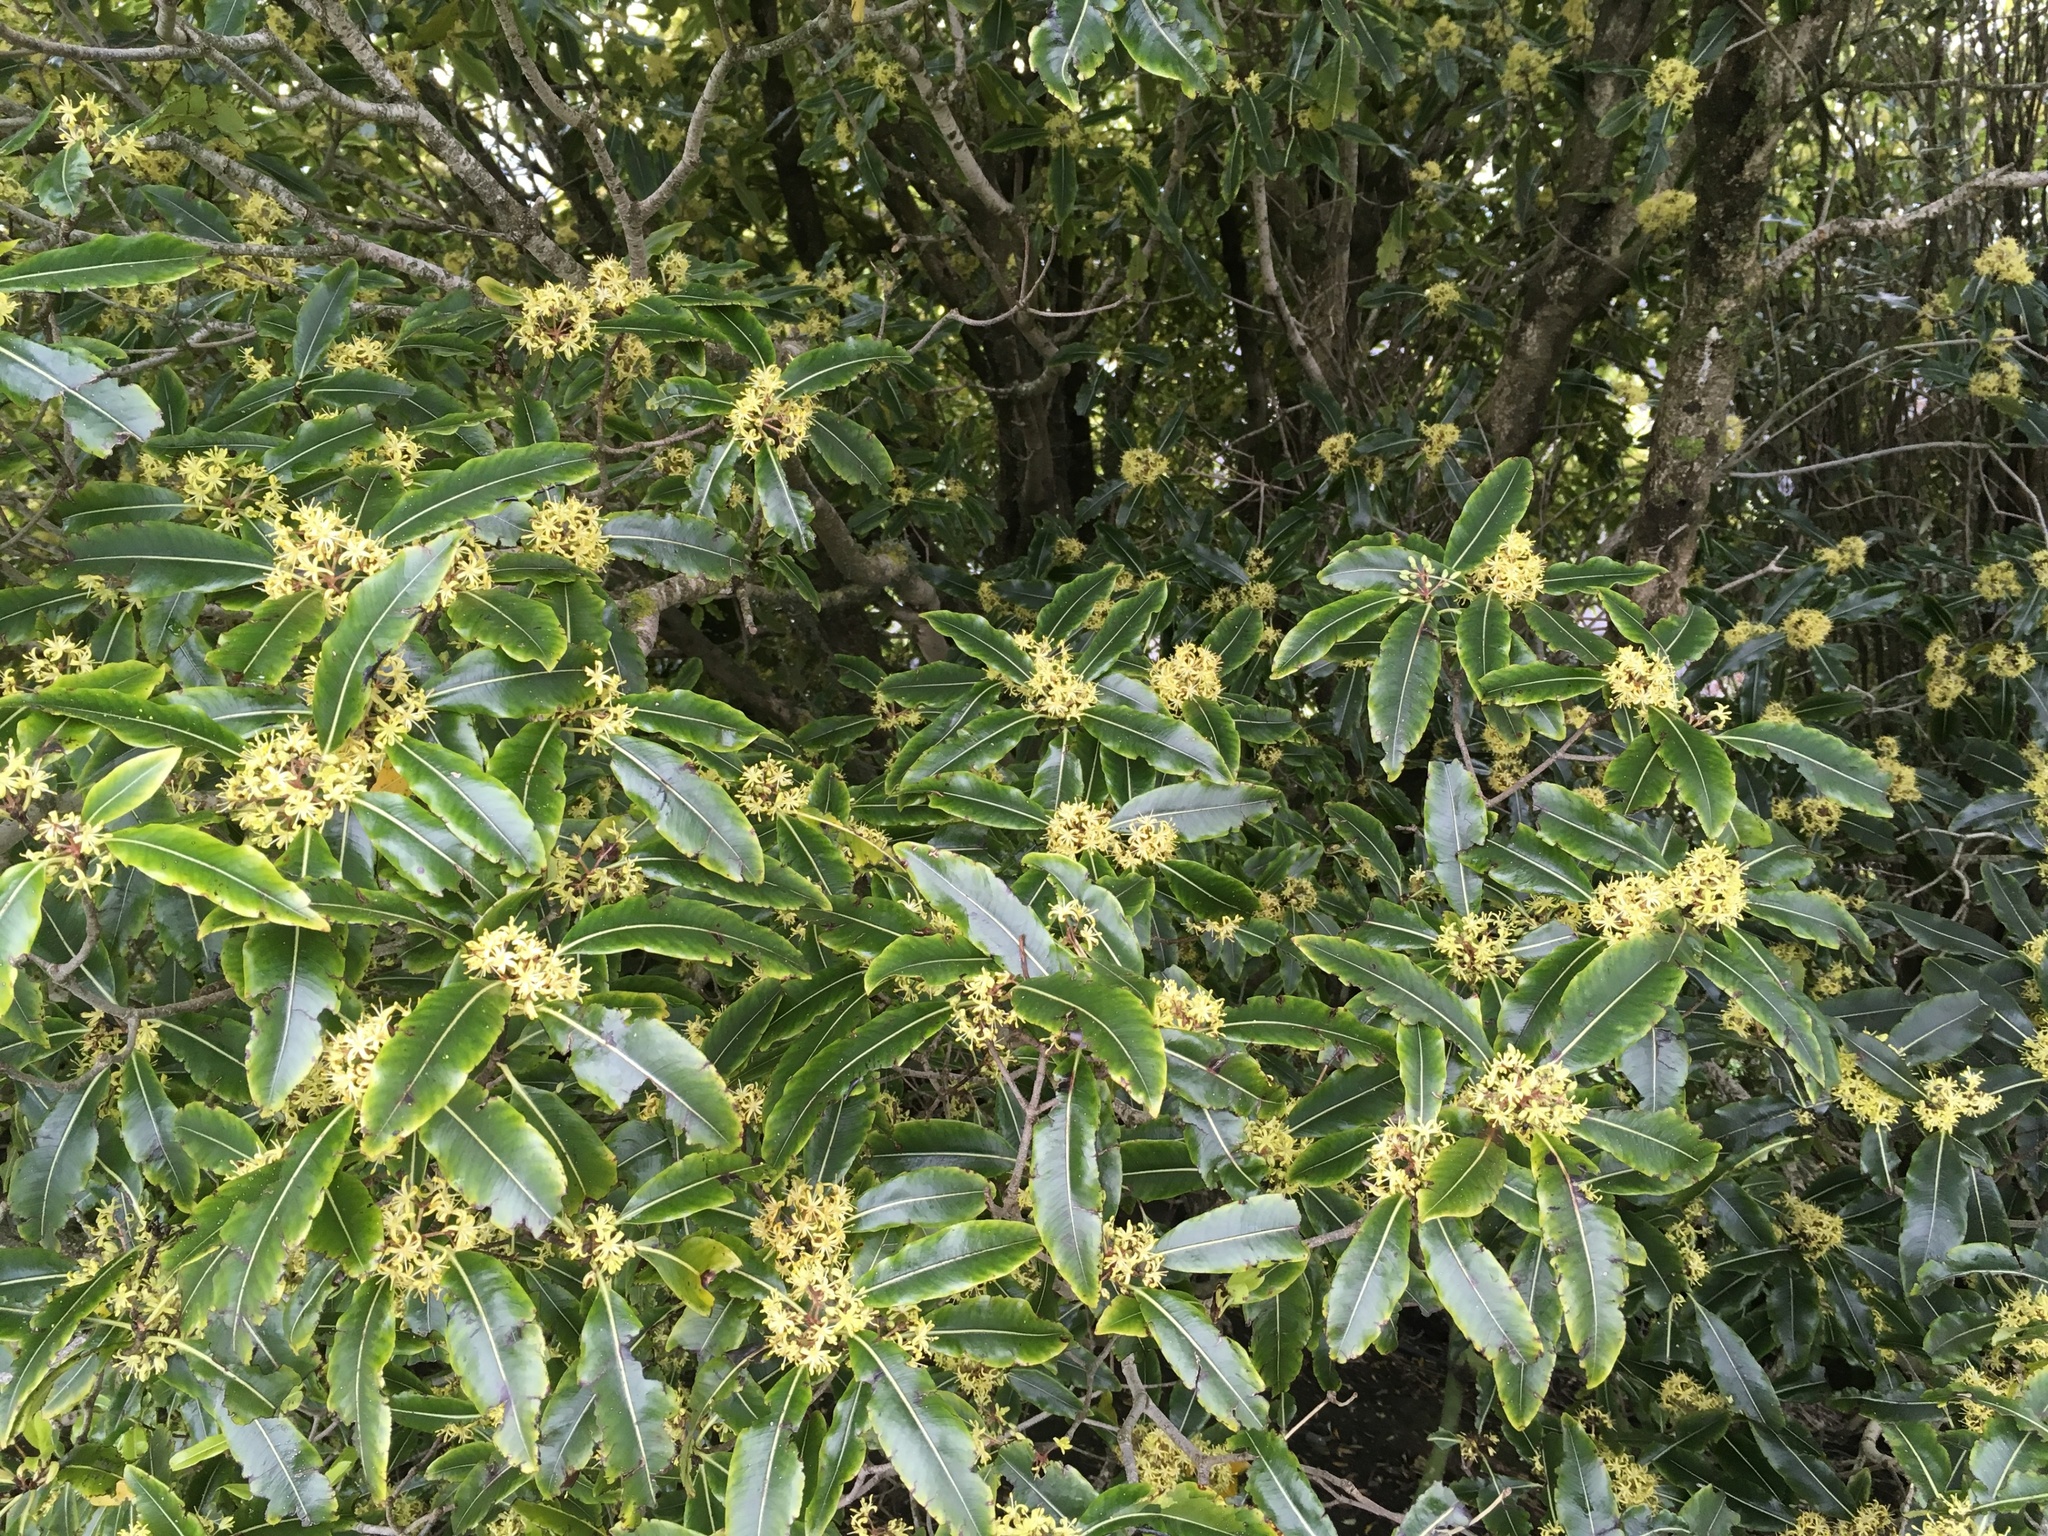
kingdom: Plantae
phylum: Tracheophyta
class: Magnoliopsida
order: Apiales
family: Pittosporaceae
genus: Pittosporum
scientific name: Pittosporum eugenioides
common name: Lemonwood
